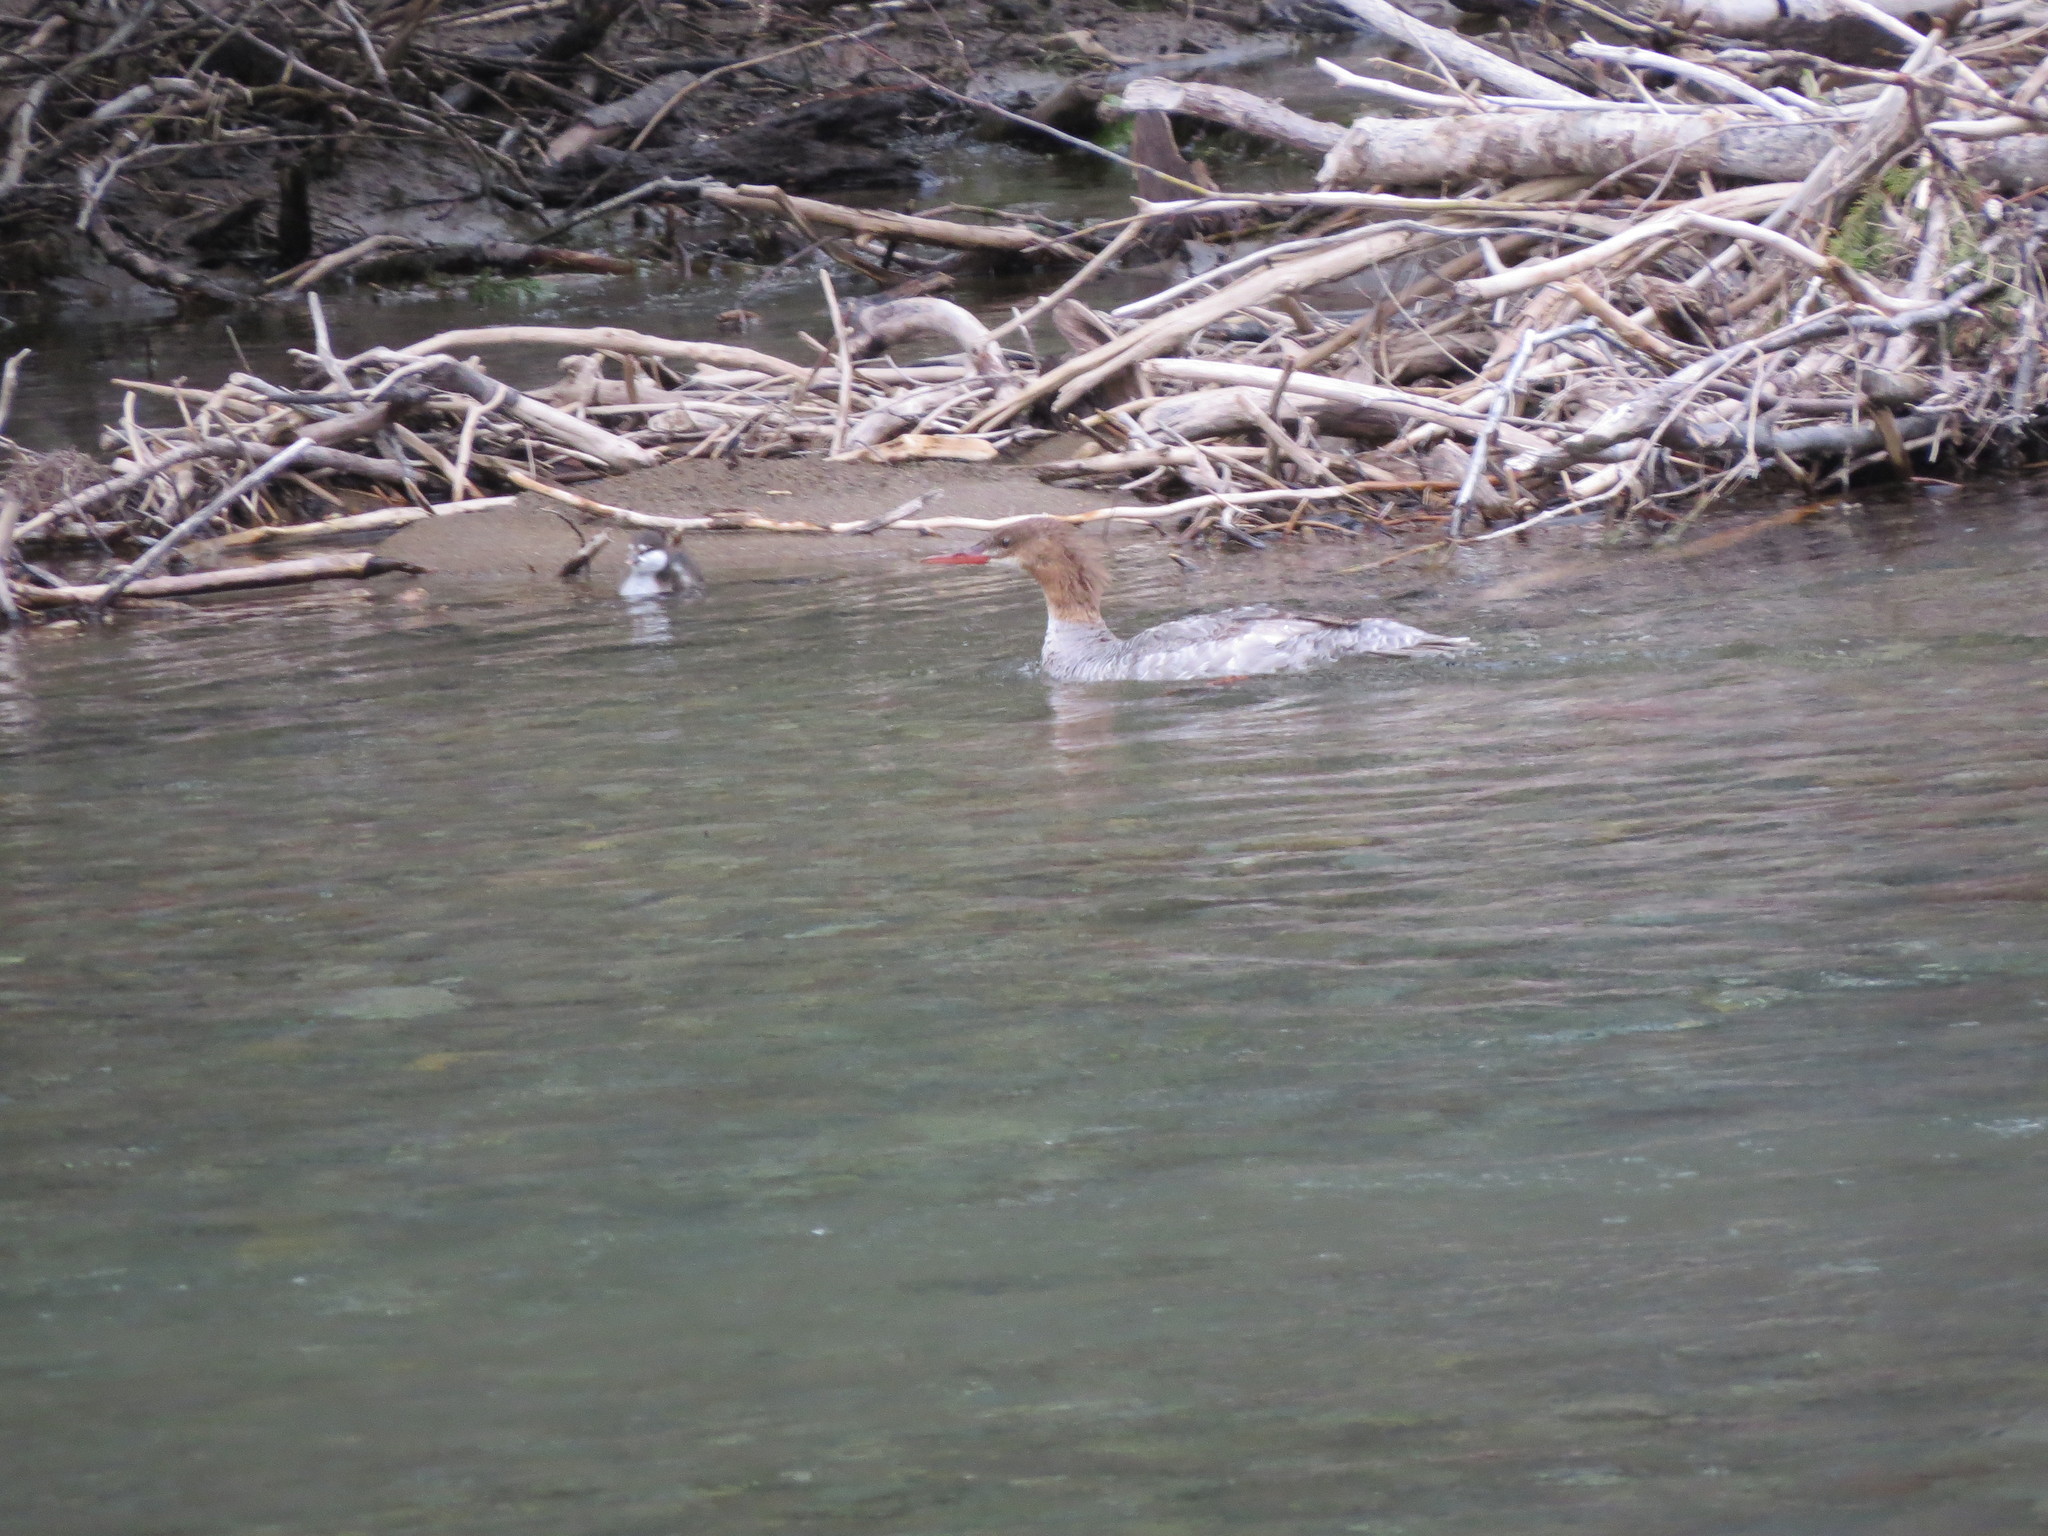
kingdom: Animalia
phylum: Chordata
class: Aves
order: Anseriformes
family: Anatidae
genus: Mergus
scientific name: Mergus merganser
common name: Common merganser
